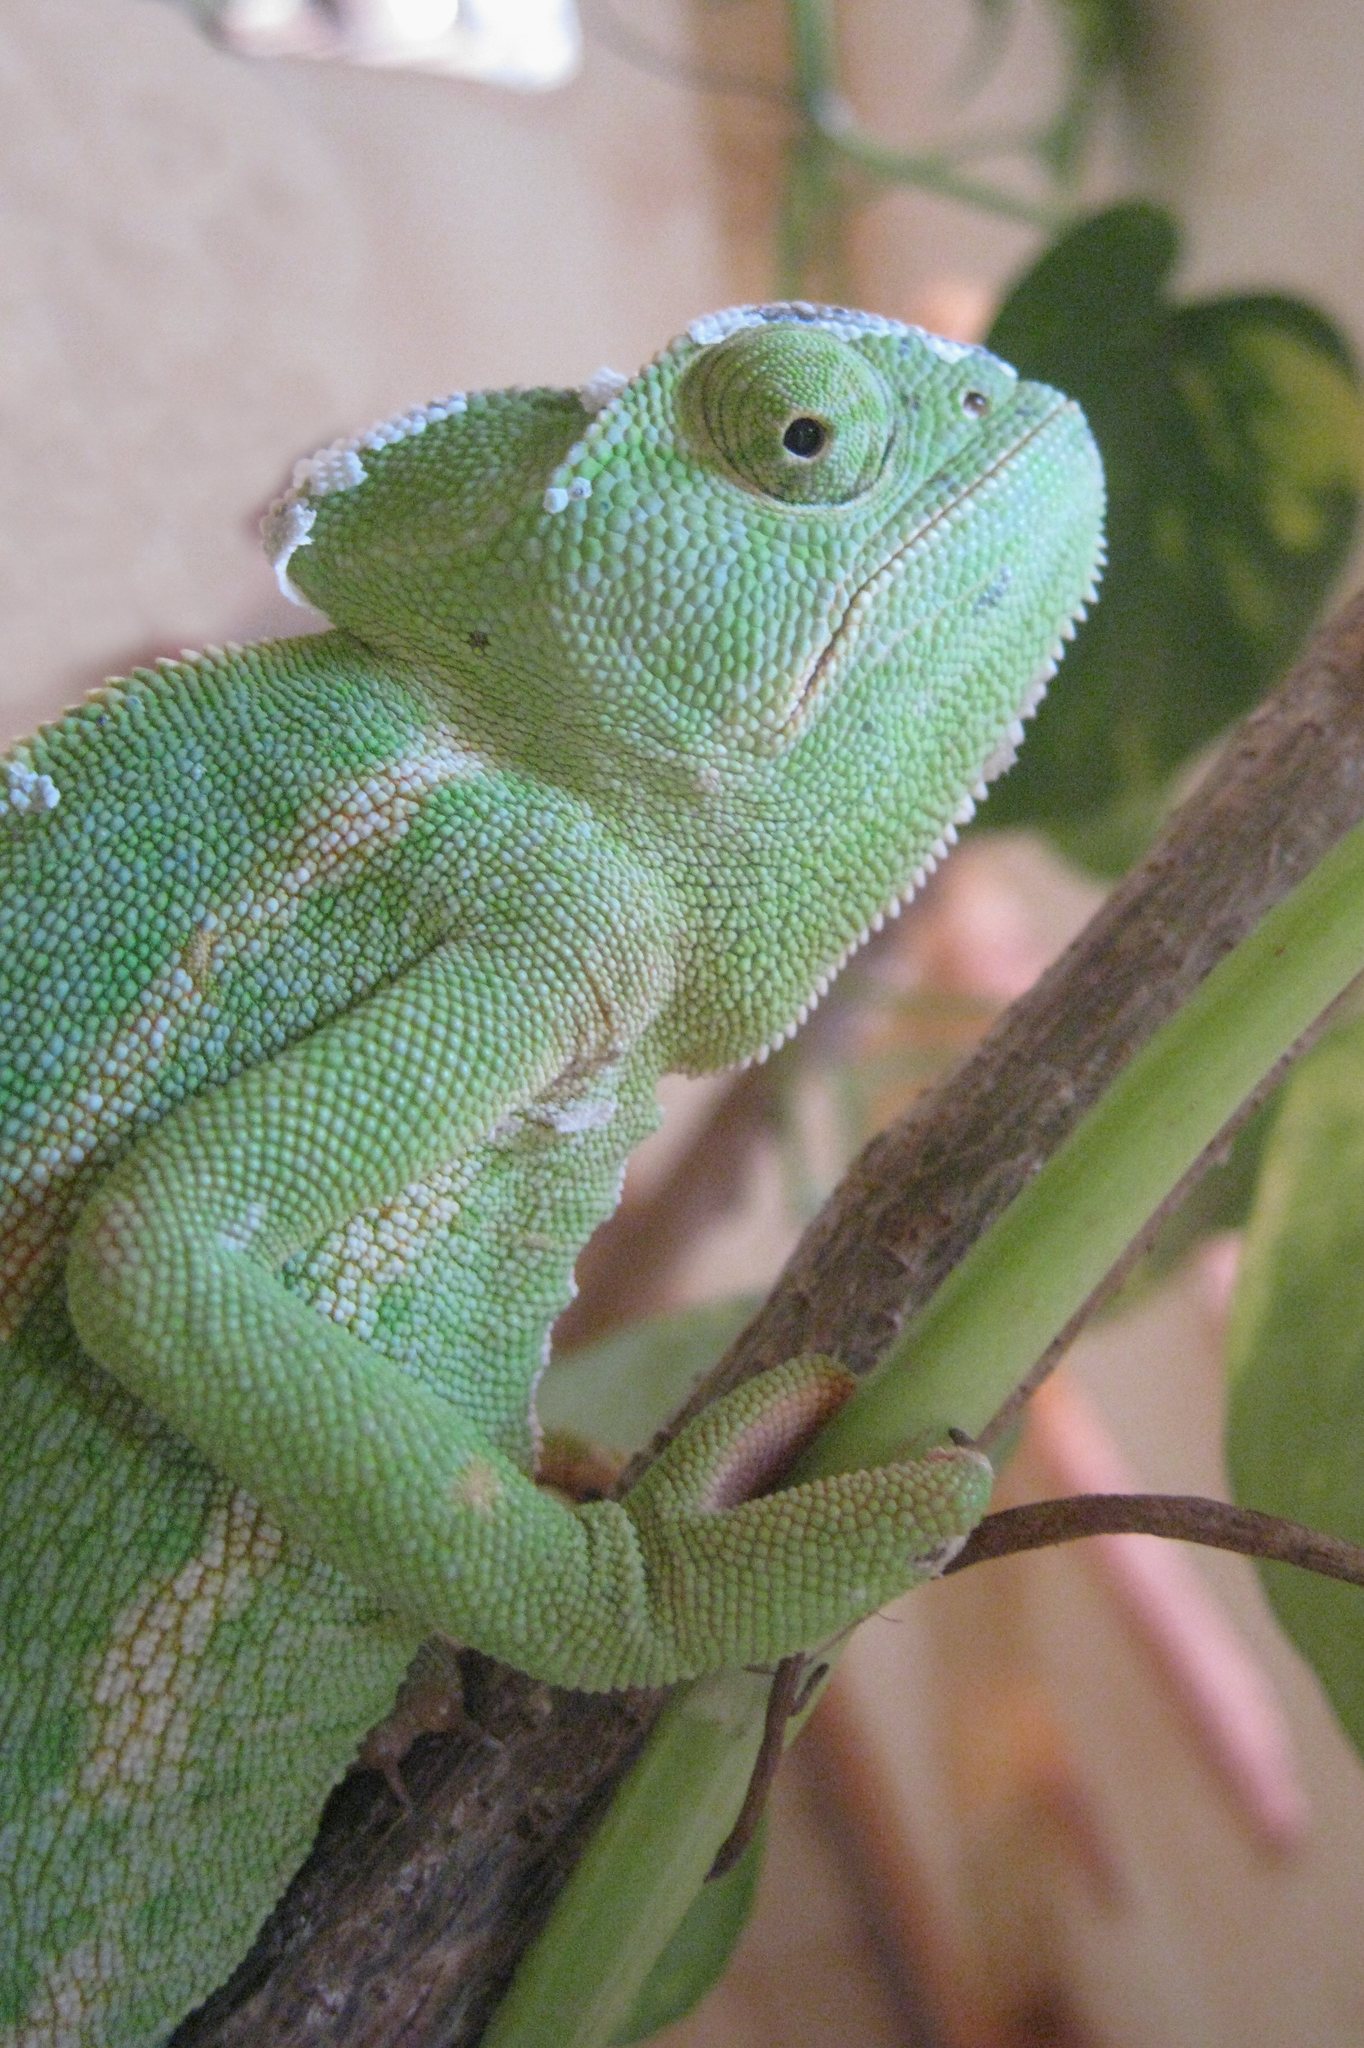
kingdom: Animalia
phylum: Chordata
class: Squamata
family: Chamaeleonidae
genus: Chamaeleo
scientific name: Chamaeleo africanus
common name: African chameleon
